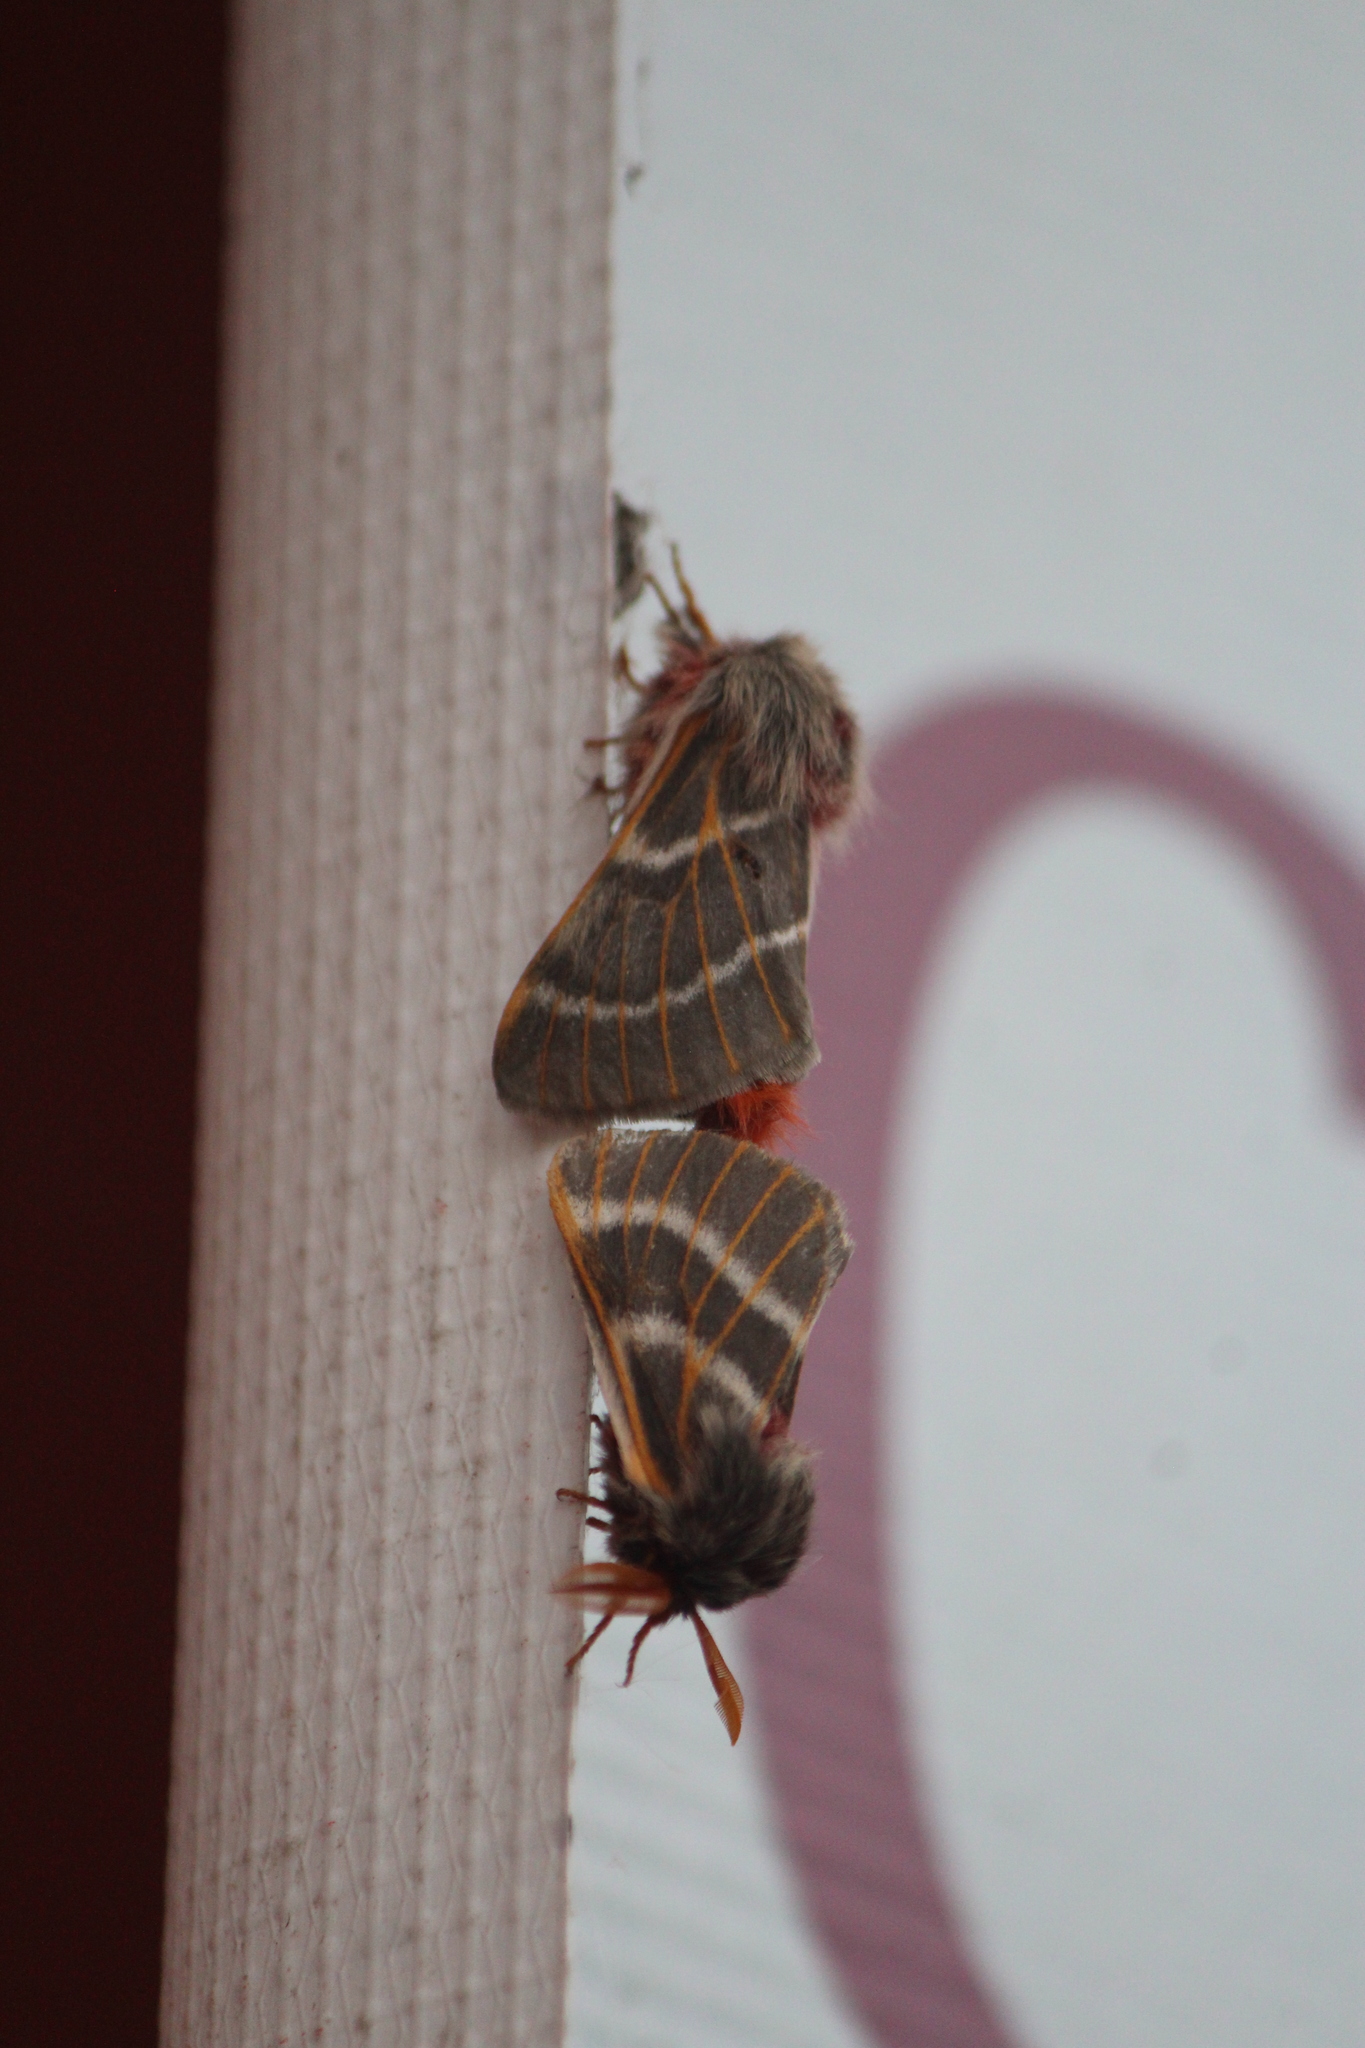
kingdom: Animalia
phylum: Arthropoda
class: Insecta
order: Lepidoptera
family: Saturniidae
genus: Hemileuca
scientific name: Hemileuca rubridorsa
